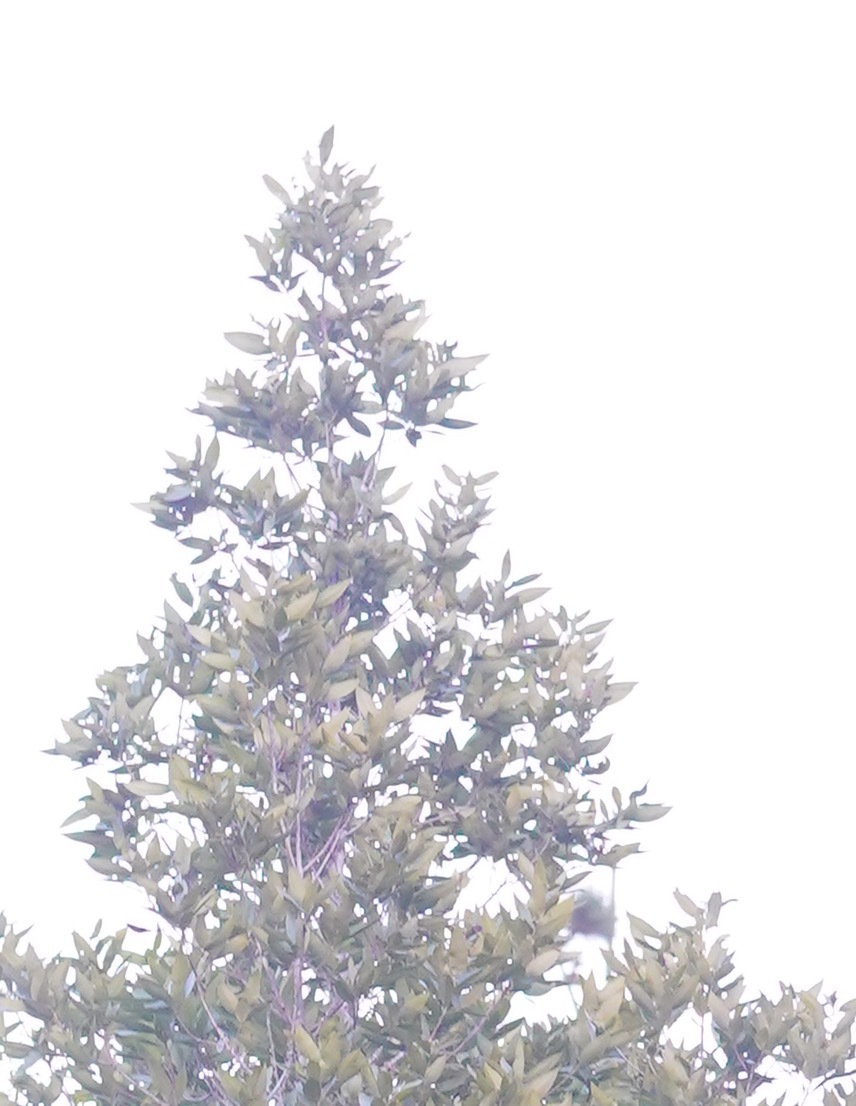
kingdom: Plantae
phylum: Tracheophyta
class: Magnoliopsida
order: Laurales
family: Lauraceae
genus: Umbellularia
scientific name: Umbellularia californica
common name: California bay
